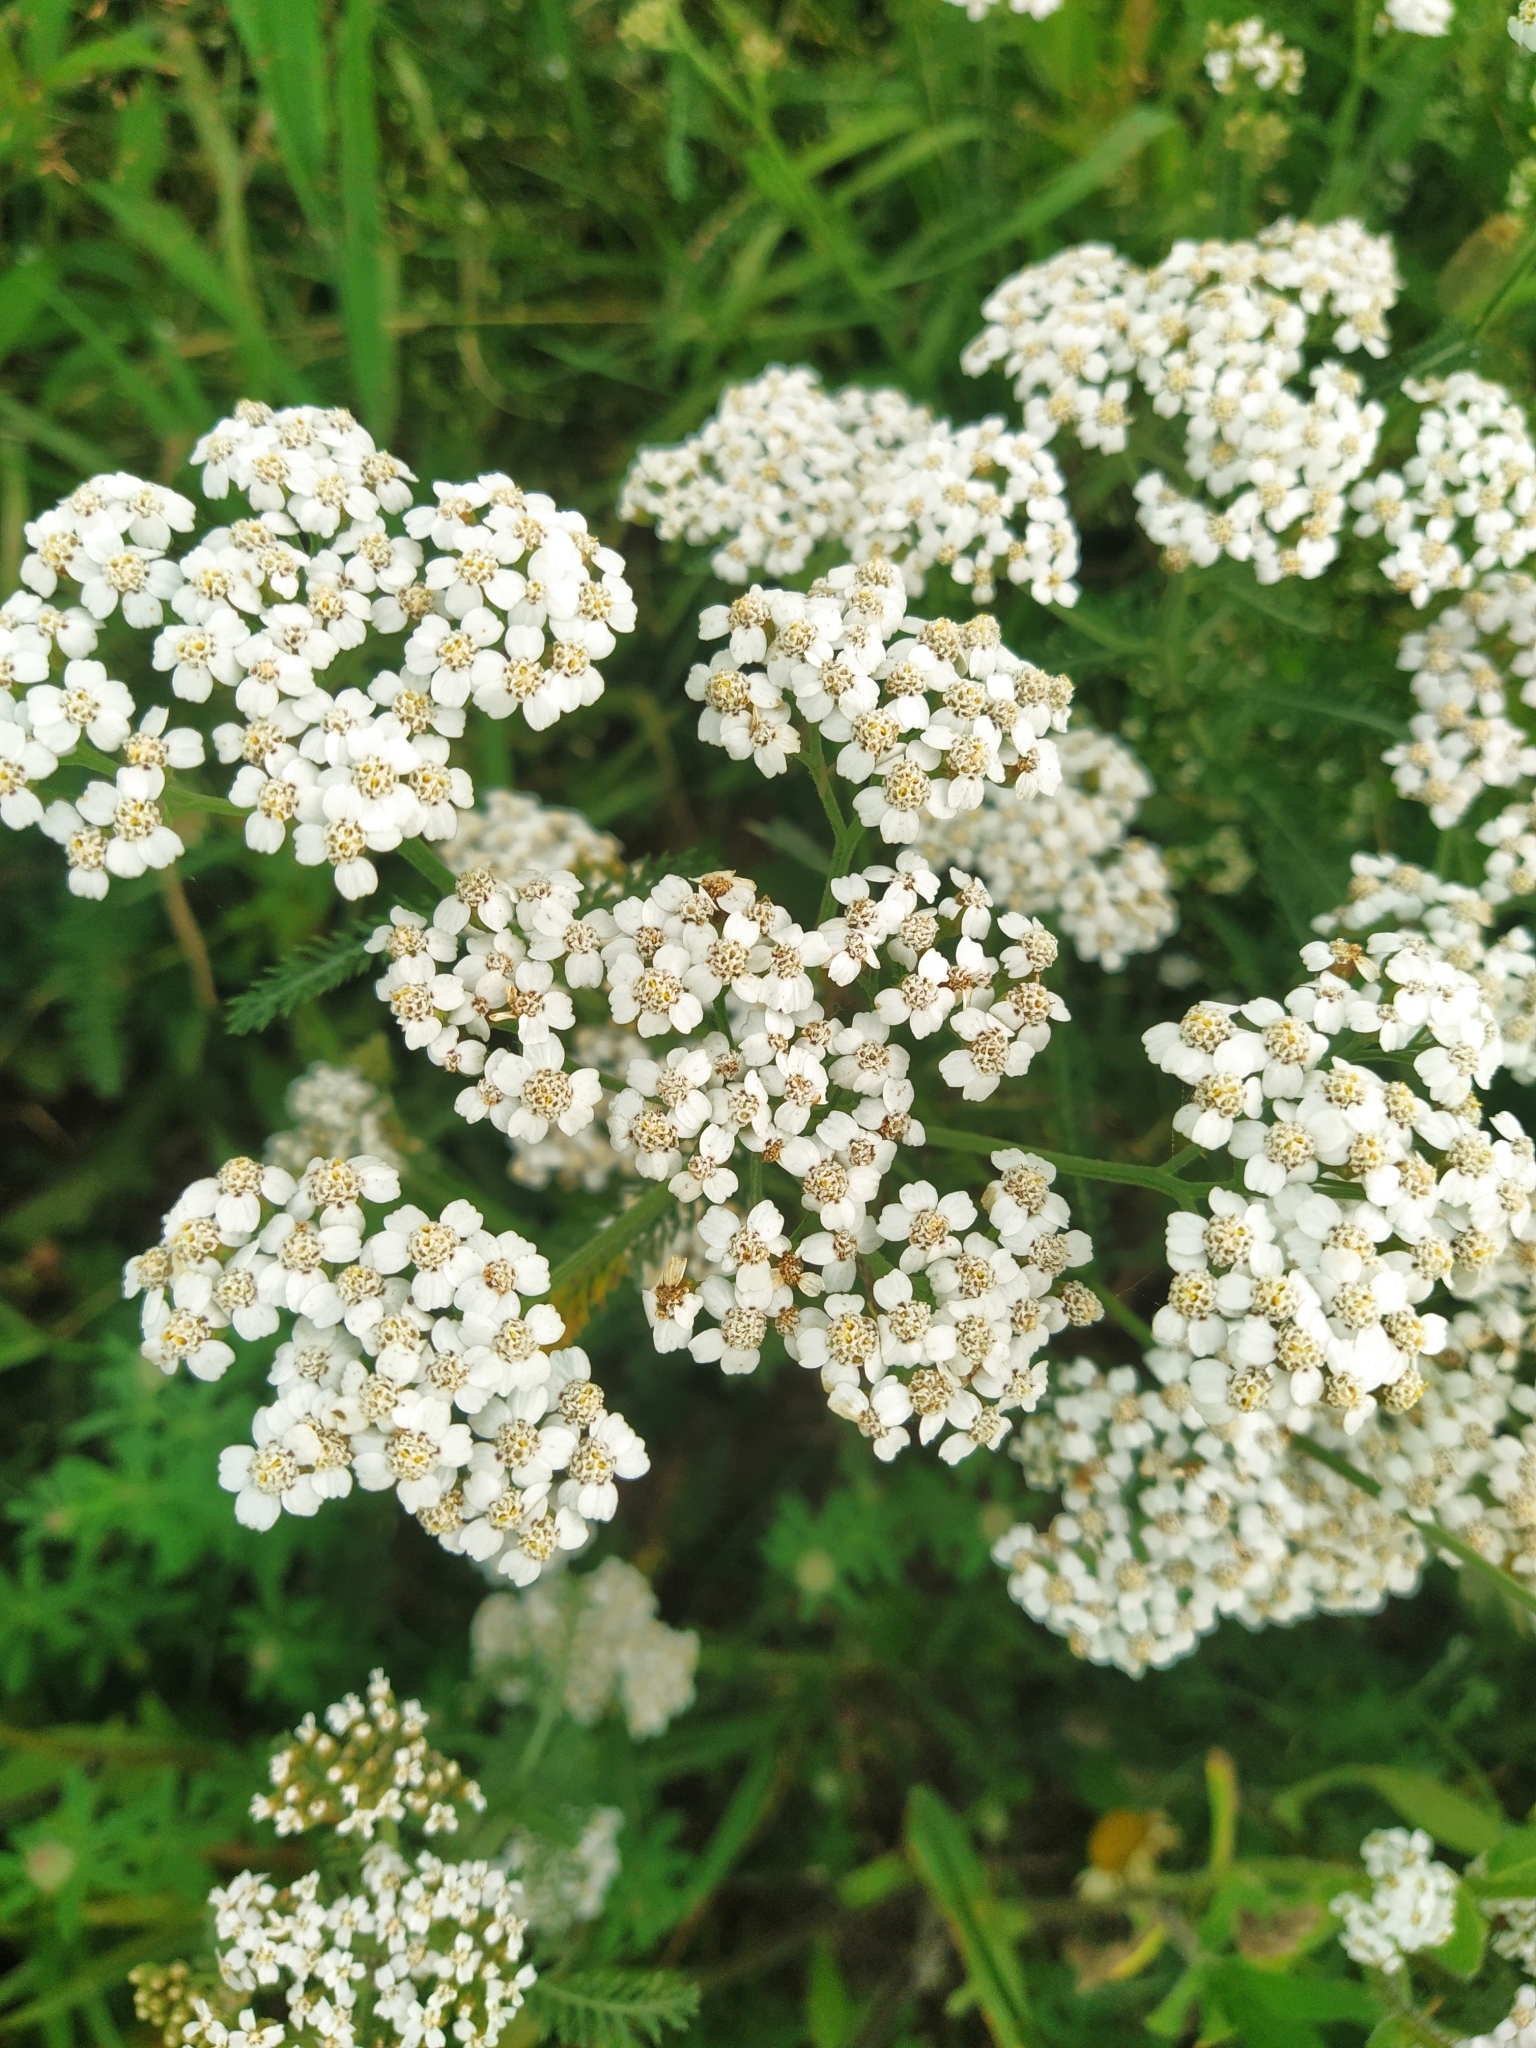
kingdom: Plantae
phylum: Tracheophyta
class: Magnoliopsida
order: Asterales
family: Asteraceae
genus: Achillea
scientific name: Achillea millefolium
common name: Yarrow
